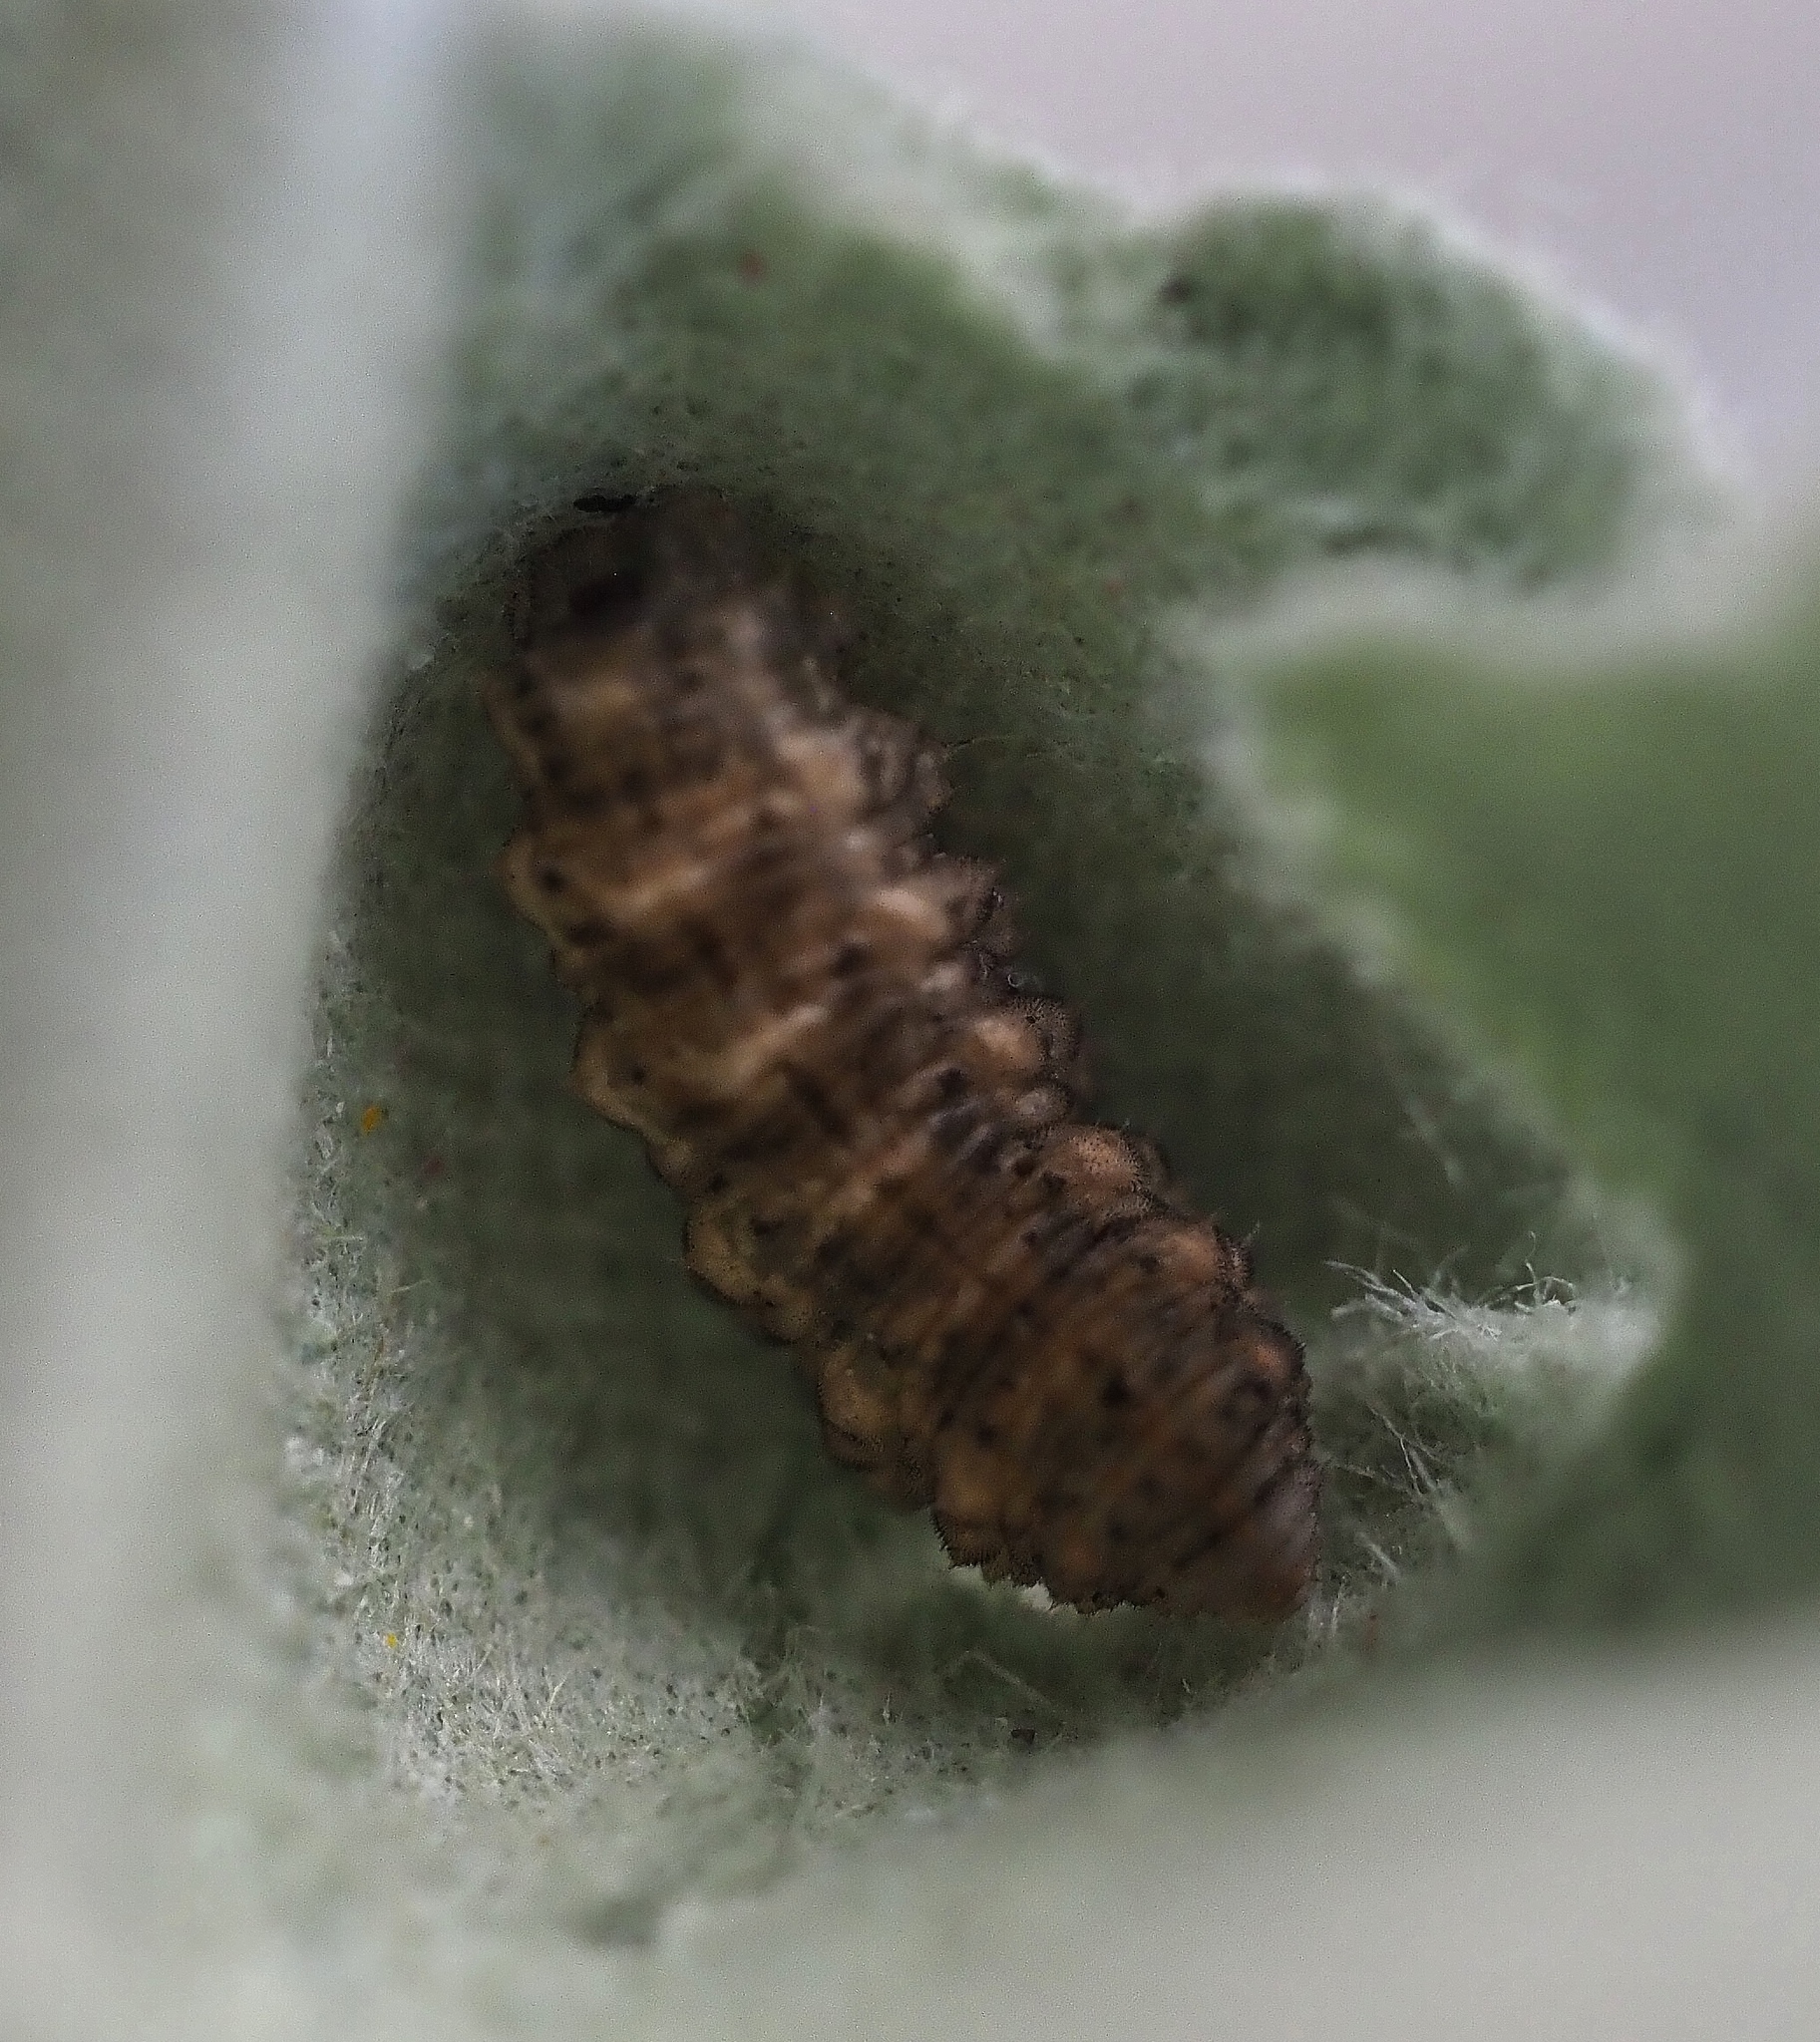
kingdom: Animalia
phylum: Arthropoda
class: Insecta
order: Diptera
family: Syrphidae
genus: Eupeodes
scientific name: Eupeodes
